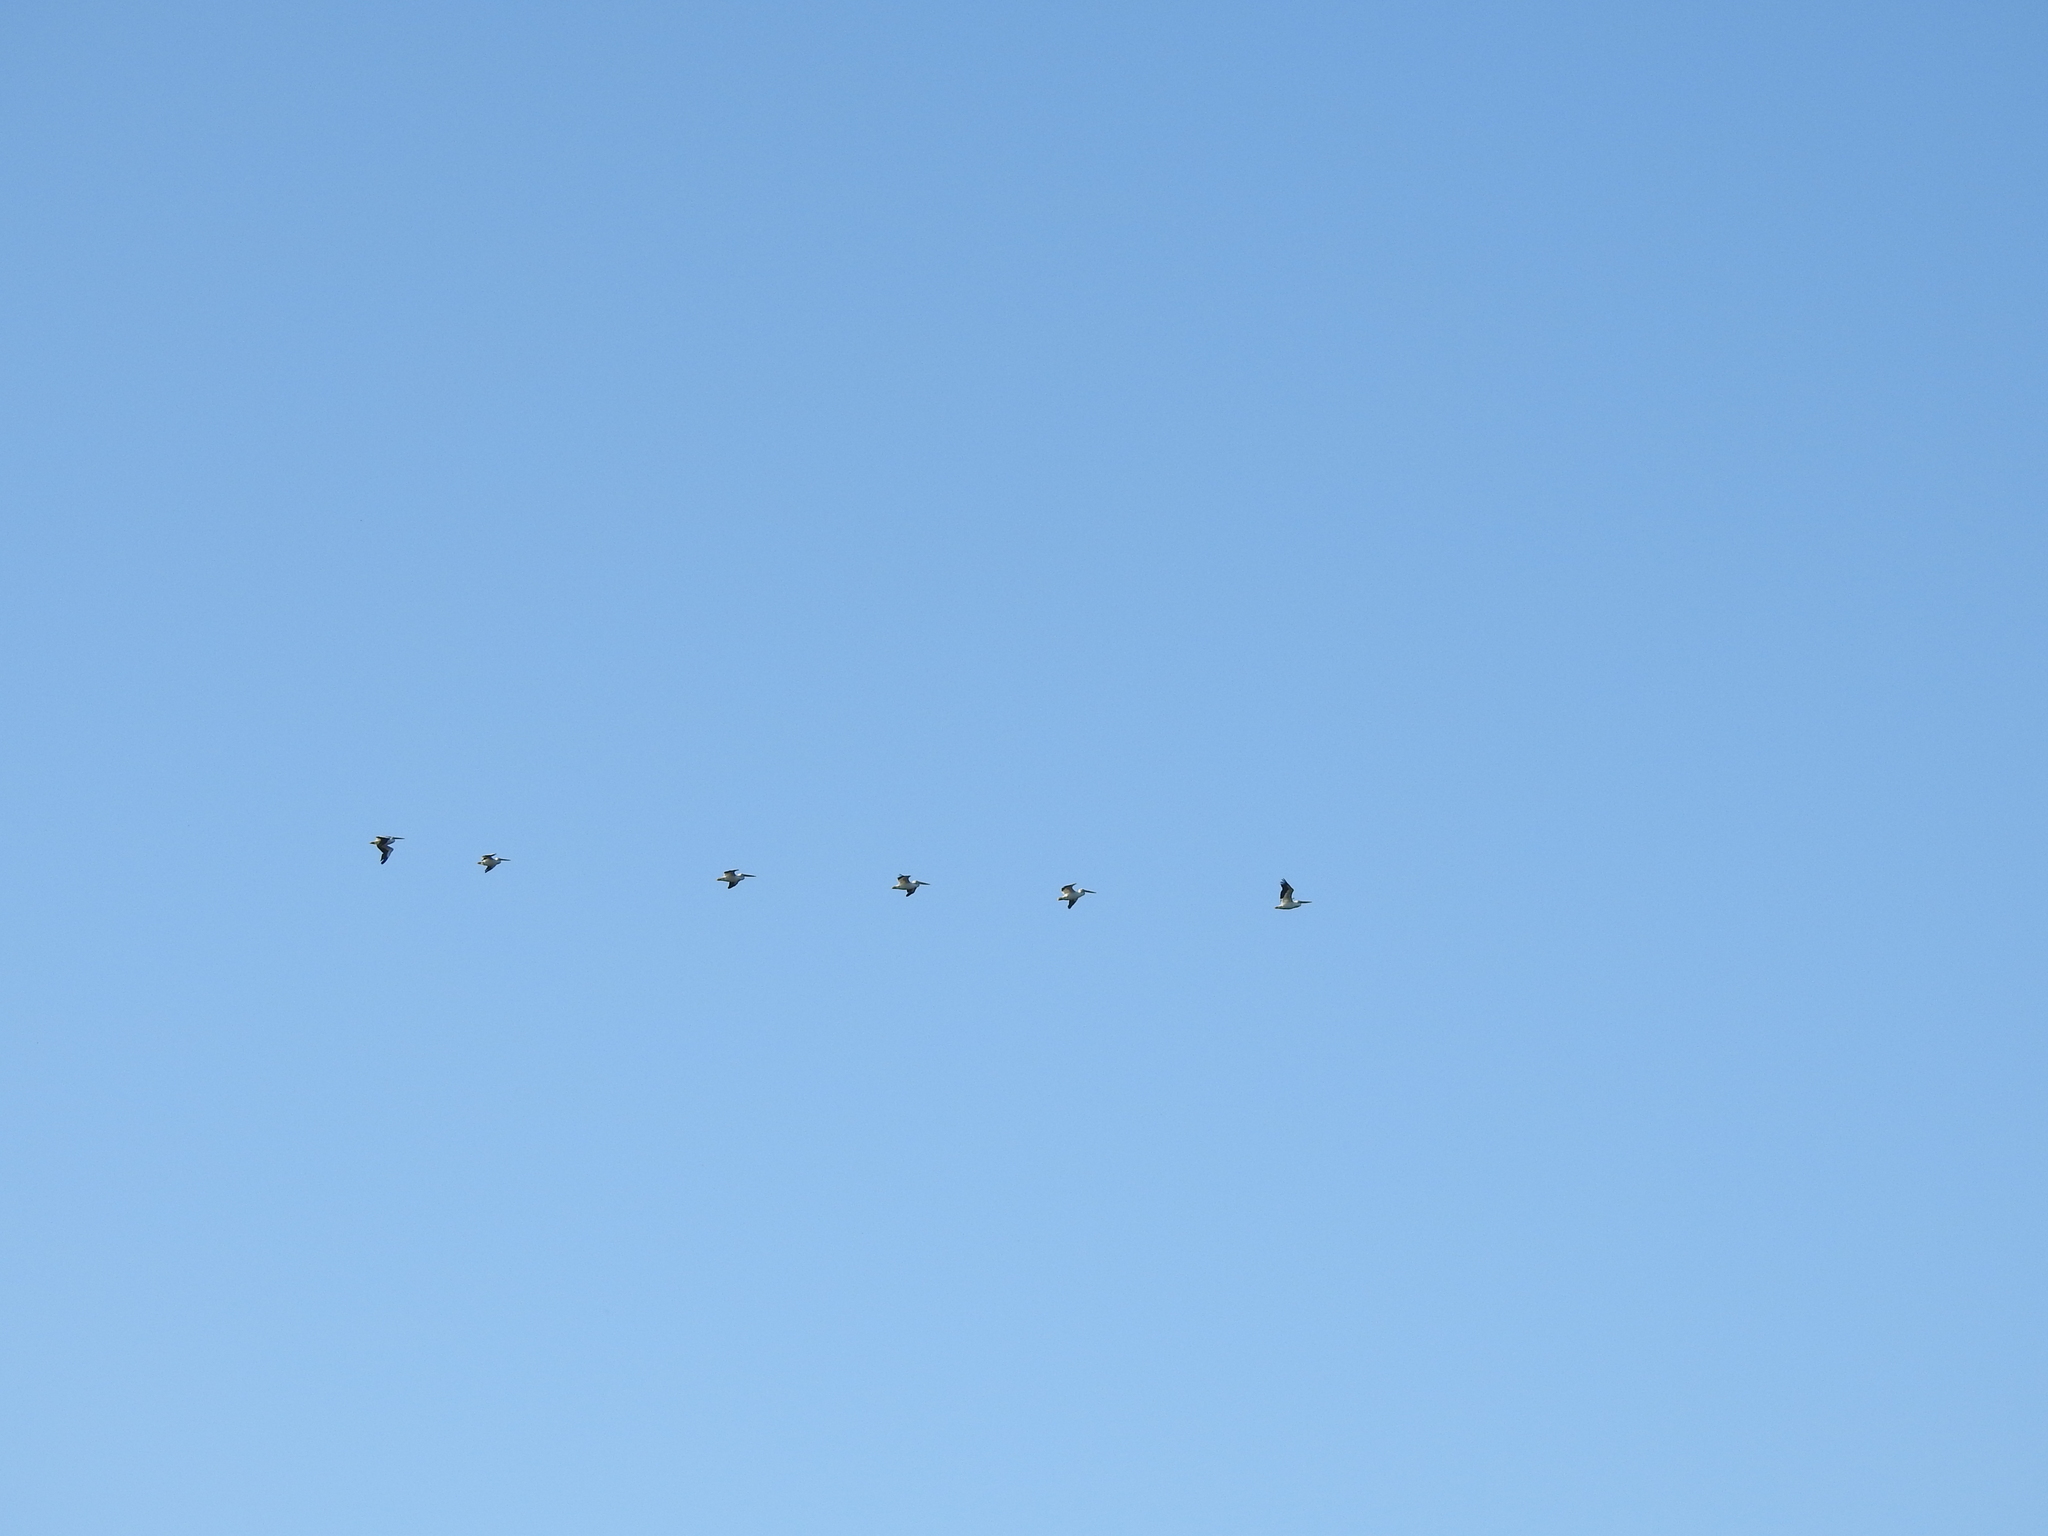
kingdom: Animalia
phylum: Chordata
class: Aves
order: Pelecaniformes
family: Pelecanidae
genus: Pelecanus
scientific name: Pelecanus erythrorhynchos
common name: American white pelican
